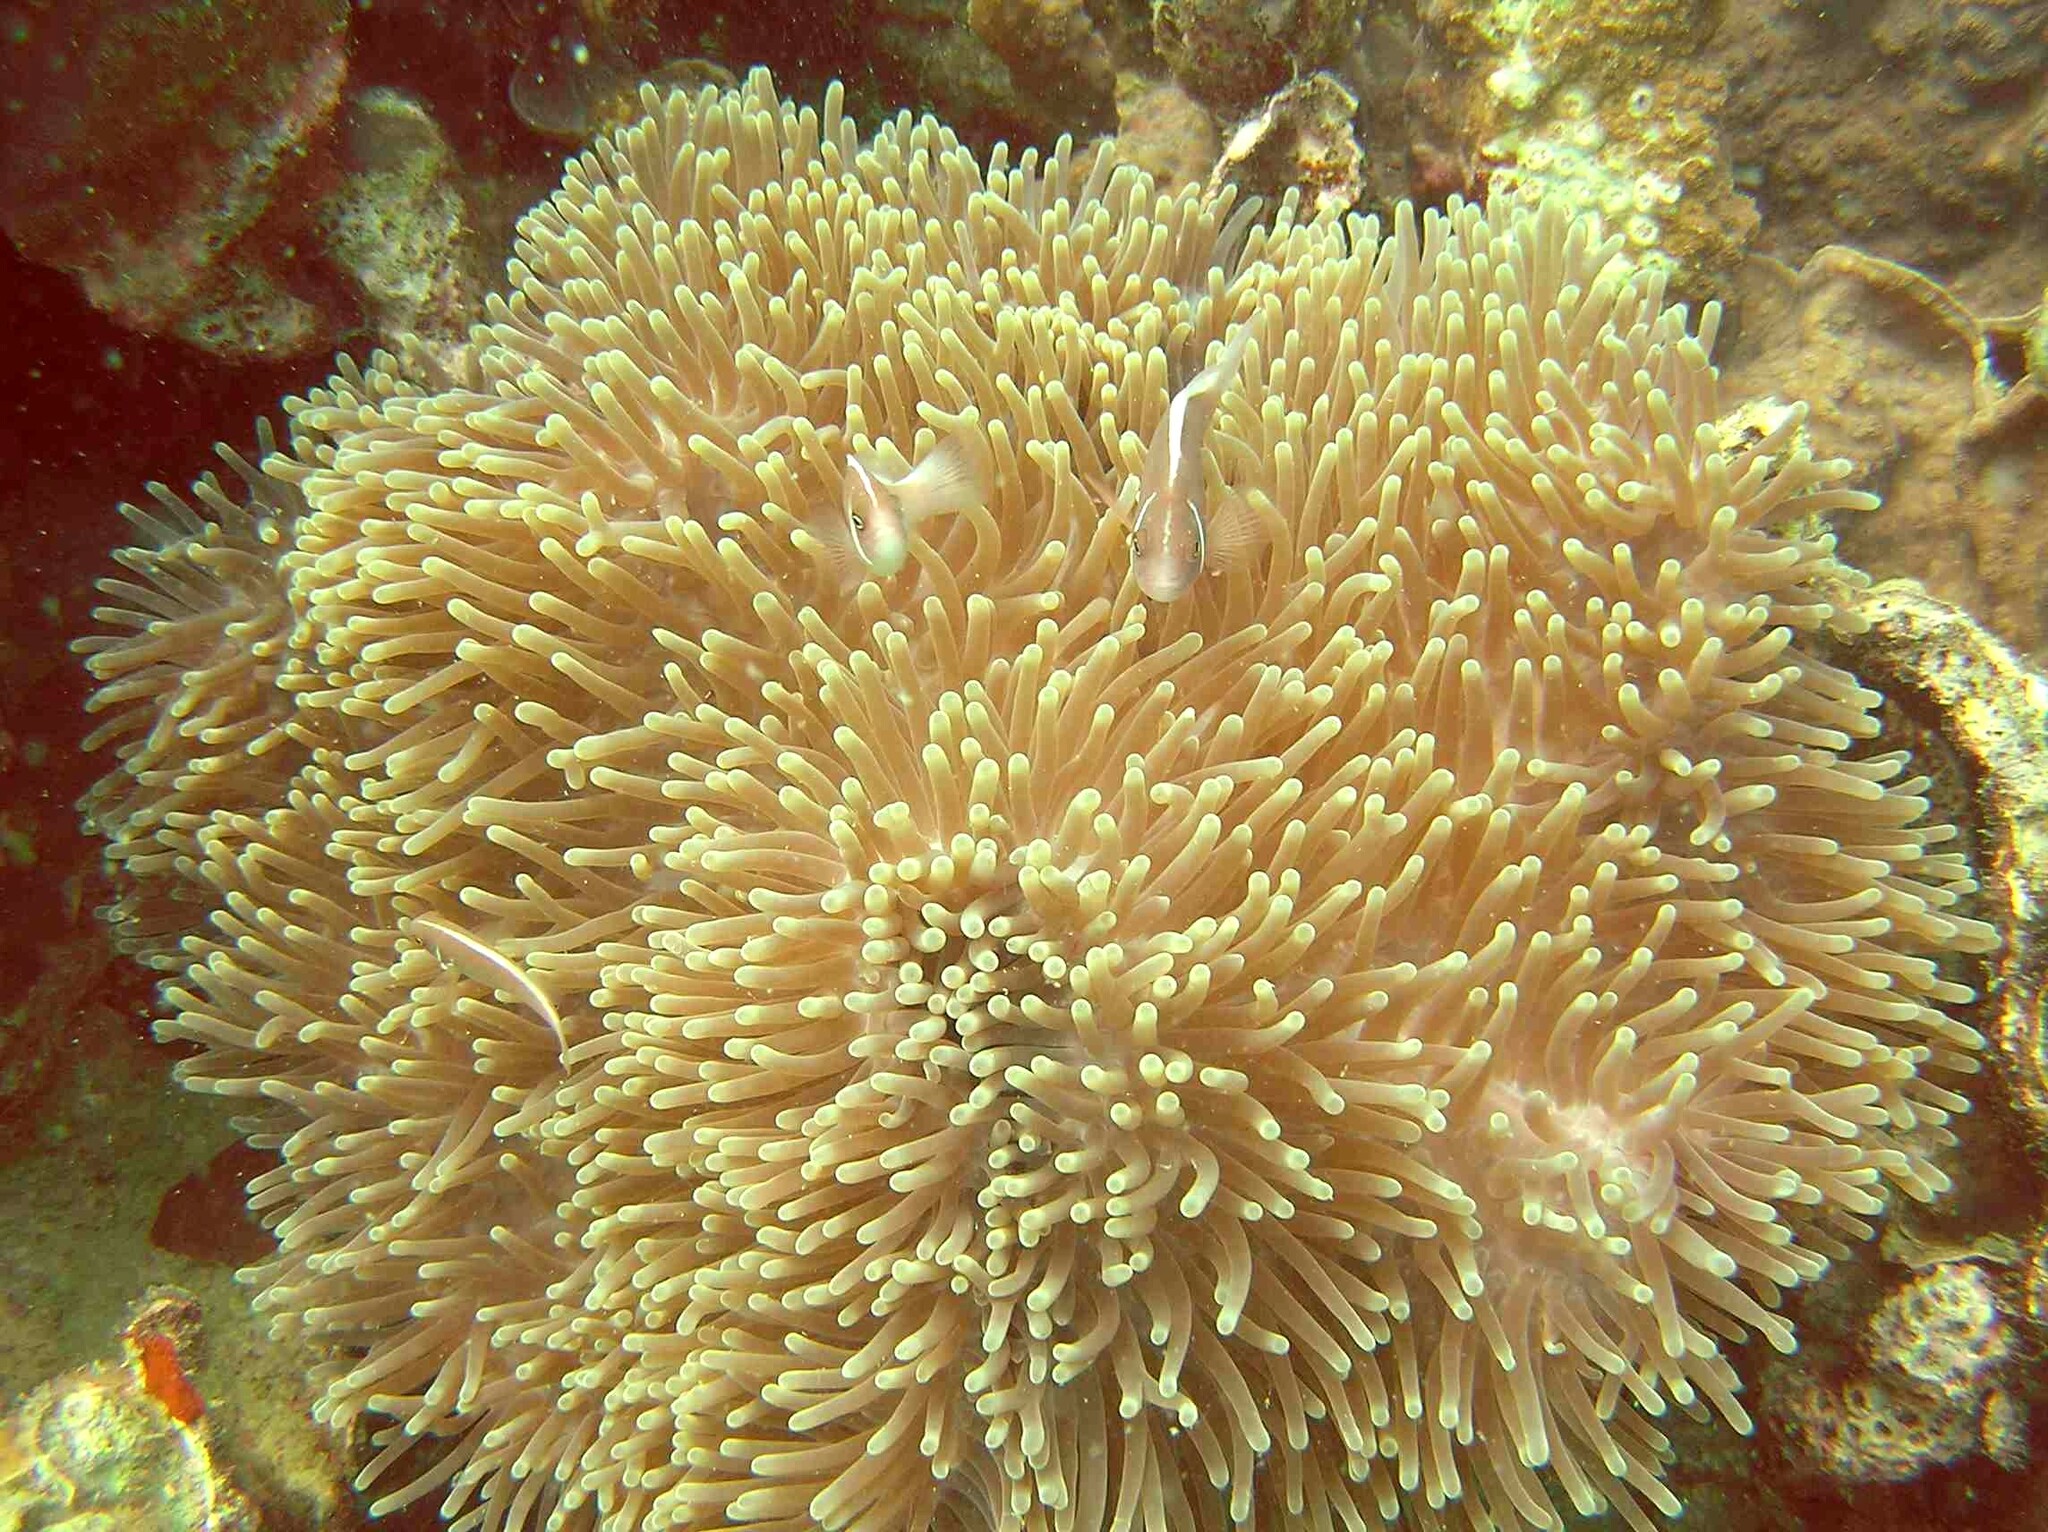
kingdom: Animalia
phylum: Chordata
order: Perciformes
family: Pomacentridae
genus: Amphiprion
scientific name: Amphiprion perideraion
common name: Pink anemonefish
